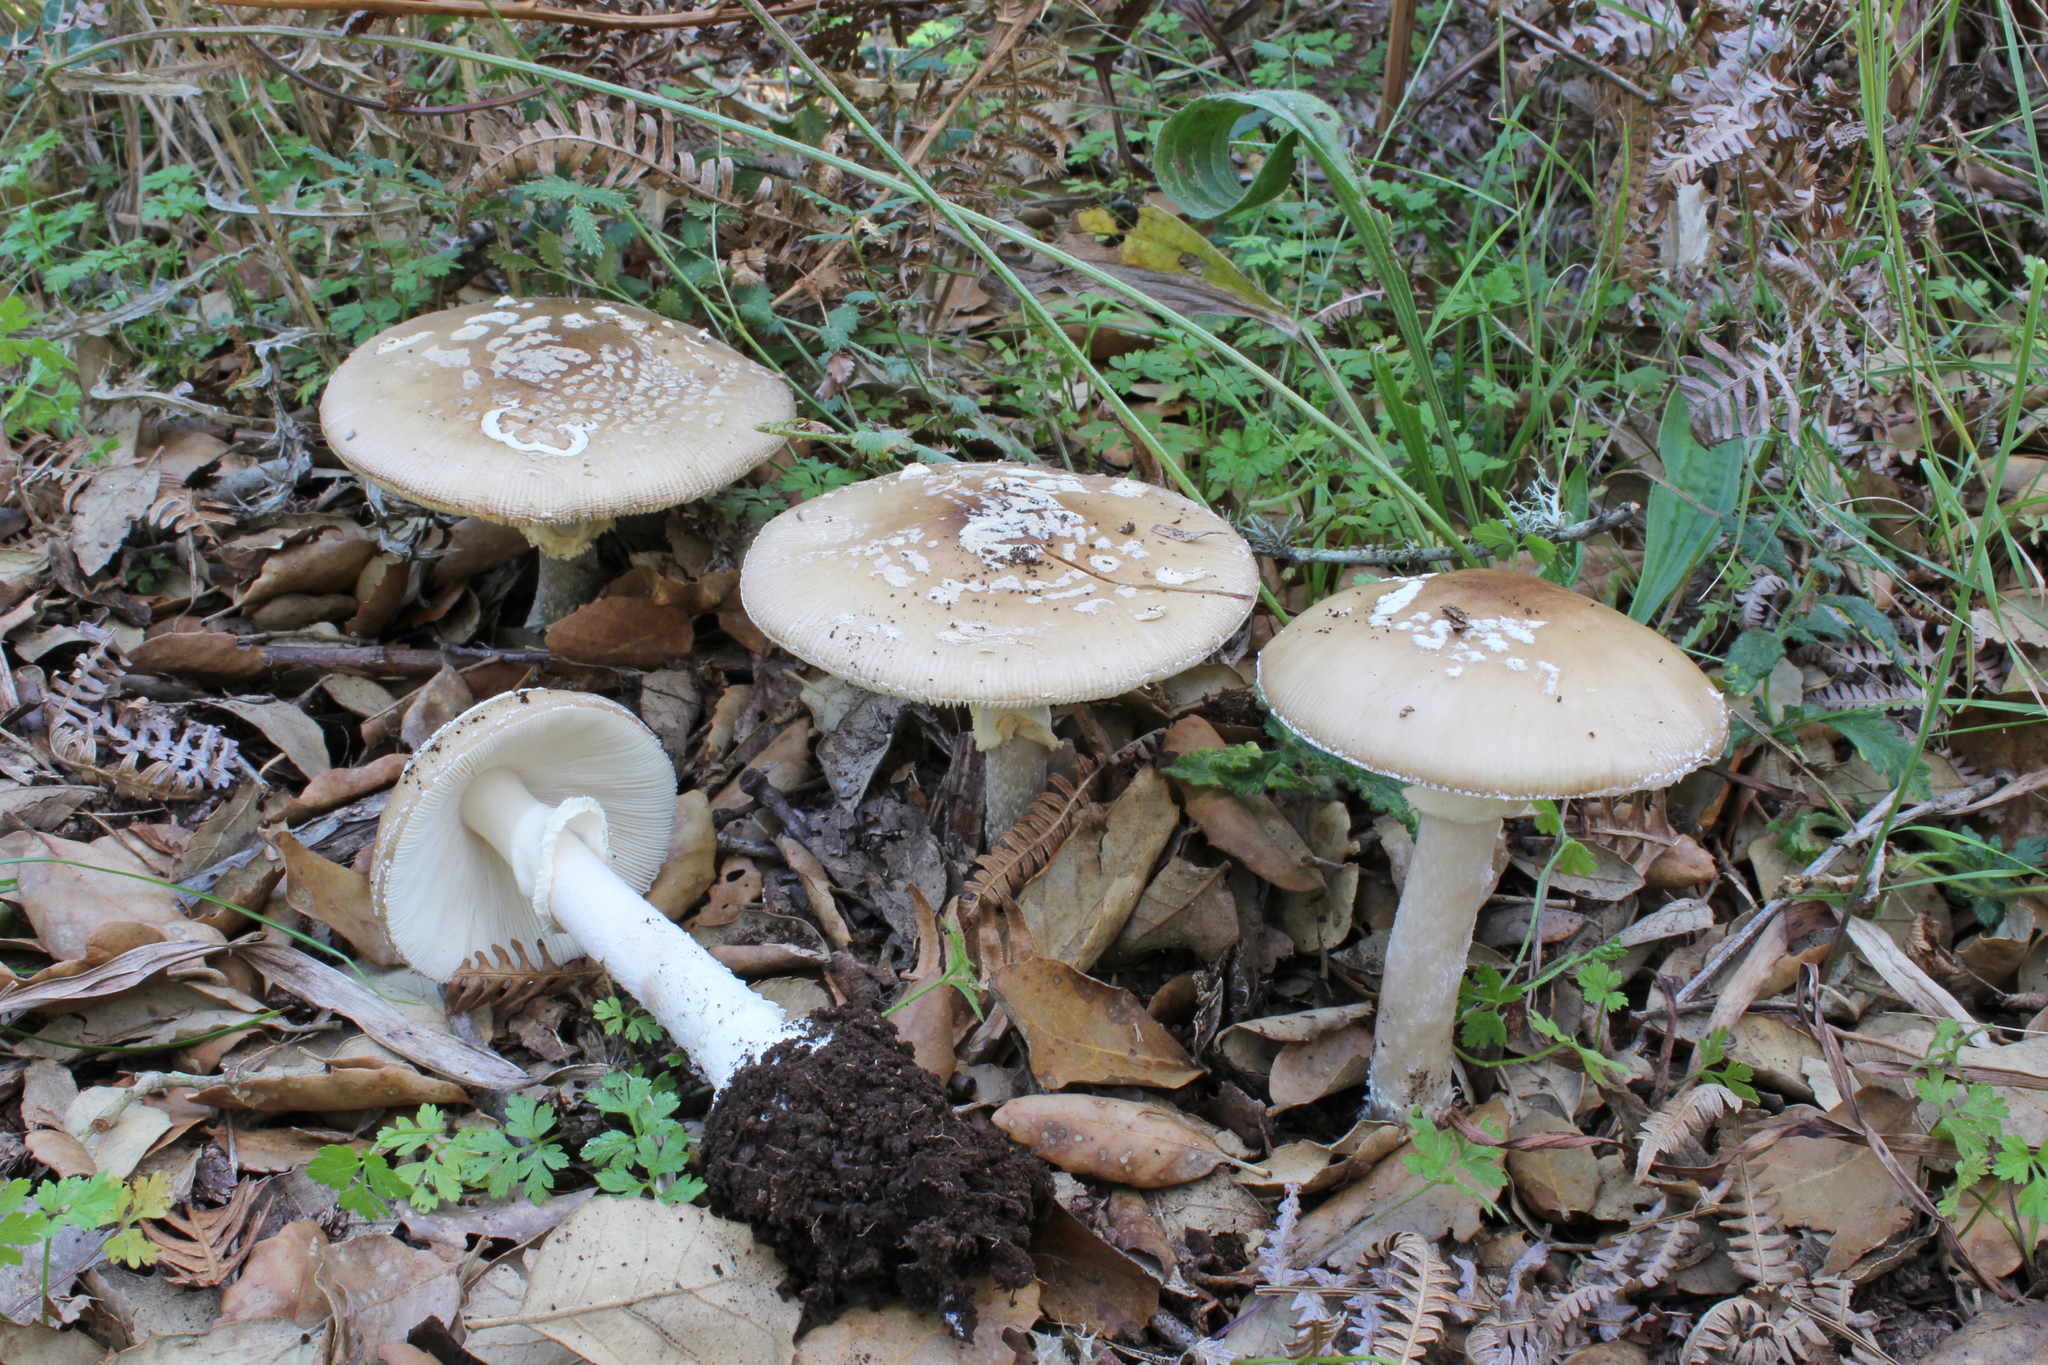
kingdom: Fungi
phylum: Basidiomycota
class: Agaricomycetes
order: Agaricales
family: Amanitaceae
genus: Amanita
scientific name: Amanita pantherina
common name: Panthercap
